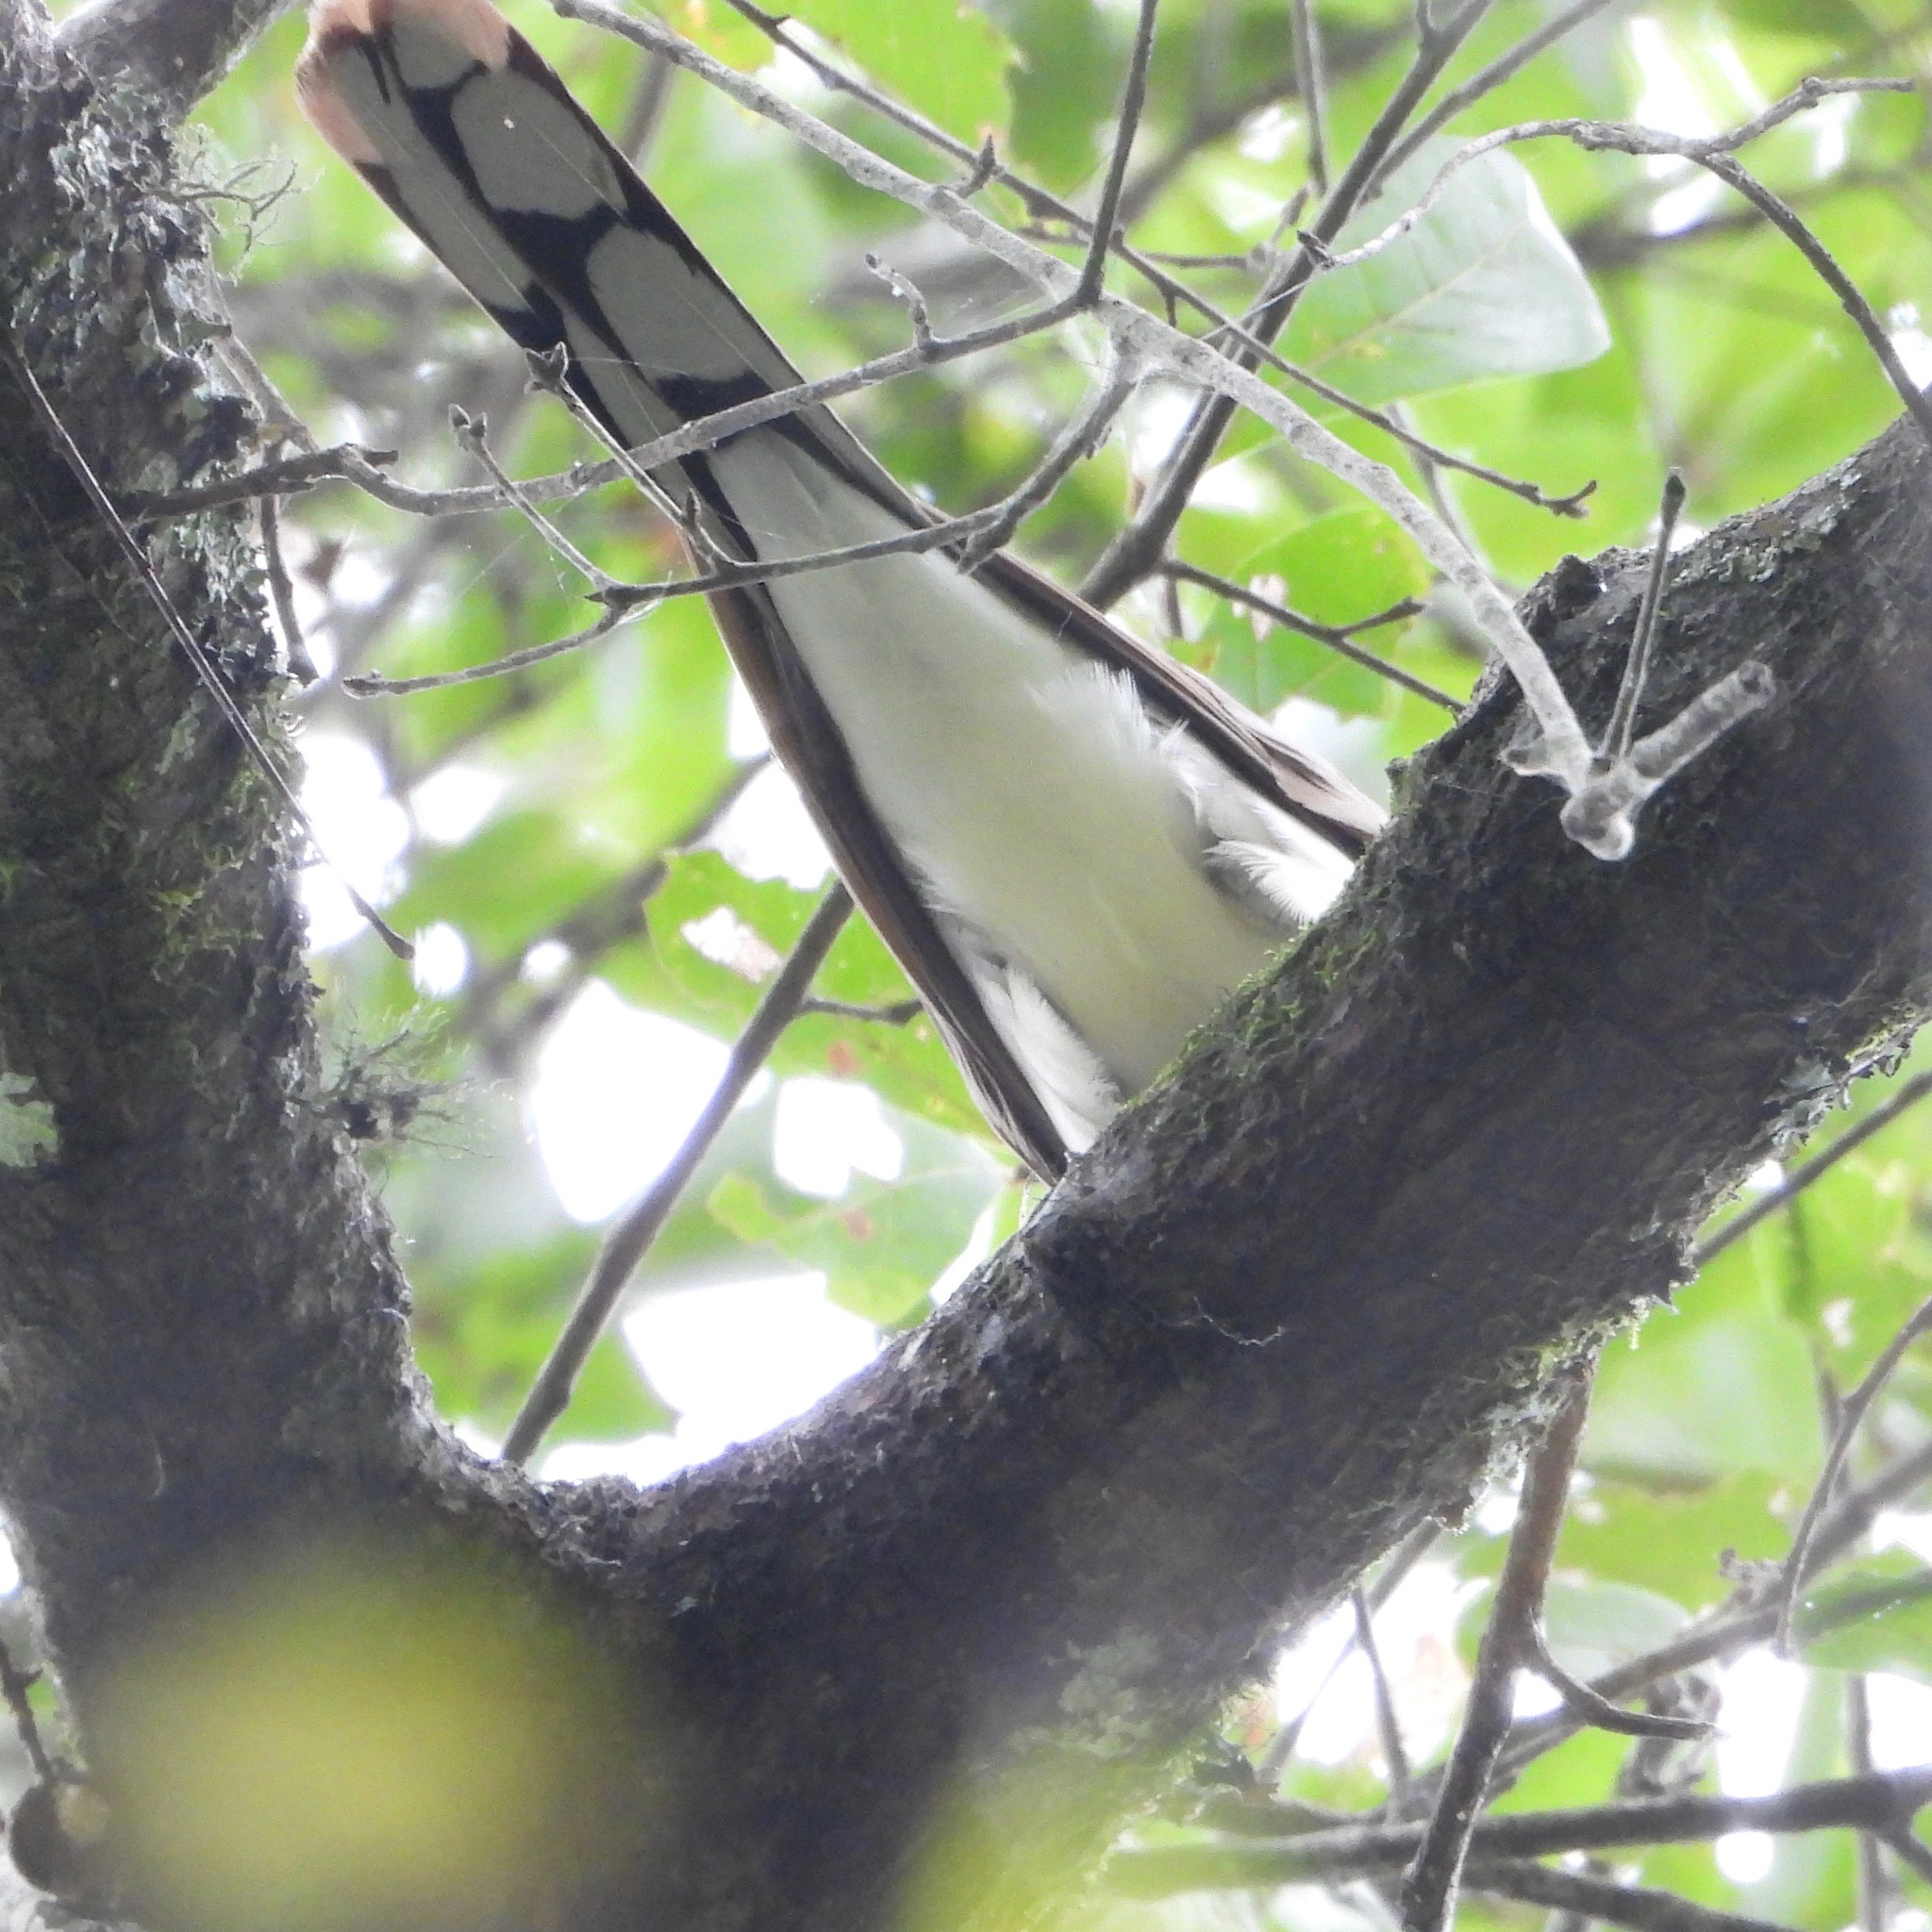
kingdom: Animalia
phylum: Chordata
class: Aves
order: Cuculiformes
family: Cuculidae
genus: Coccyzus
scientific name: Coccyzus americanus
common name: Yellow-billed cuckoo
